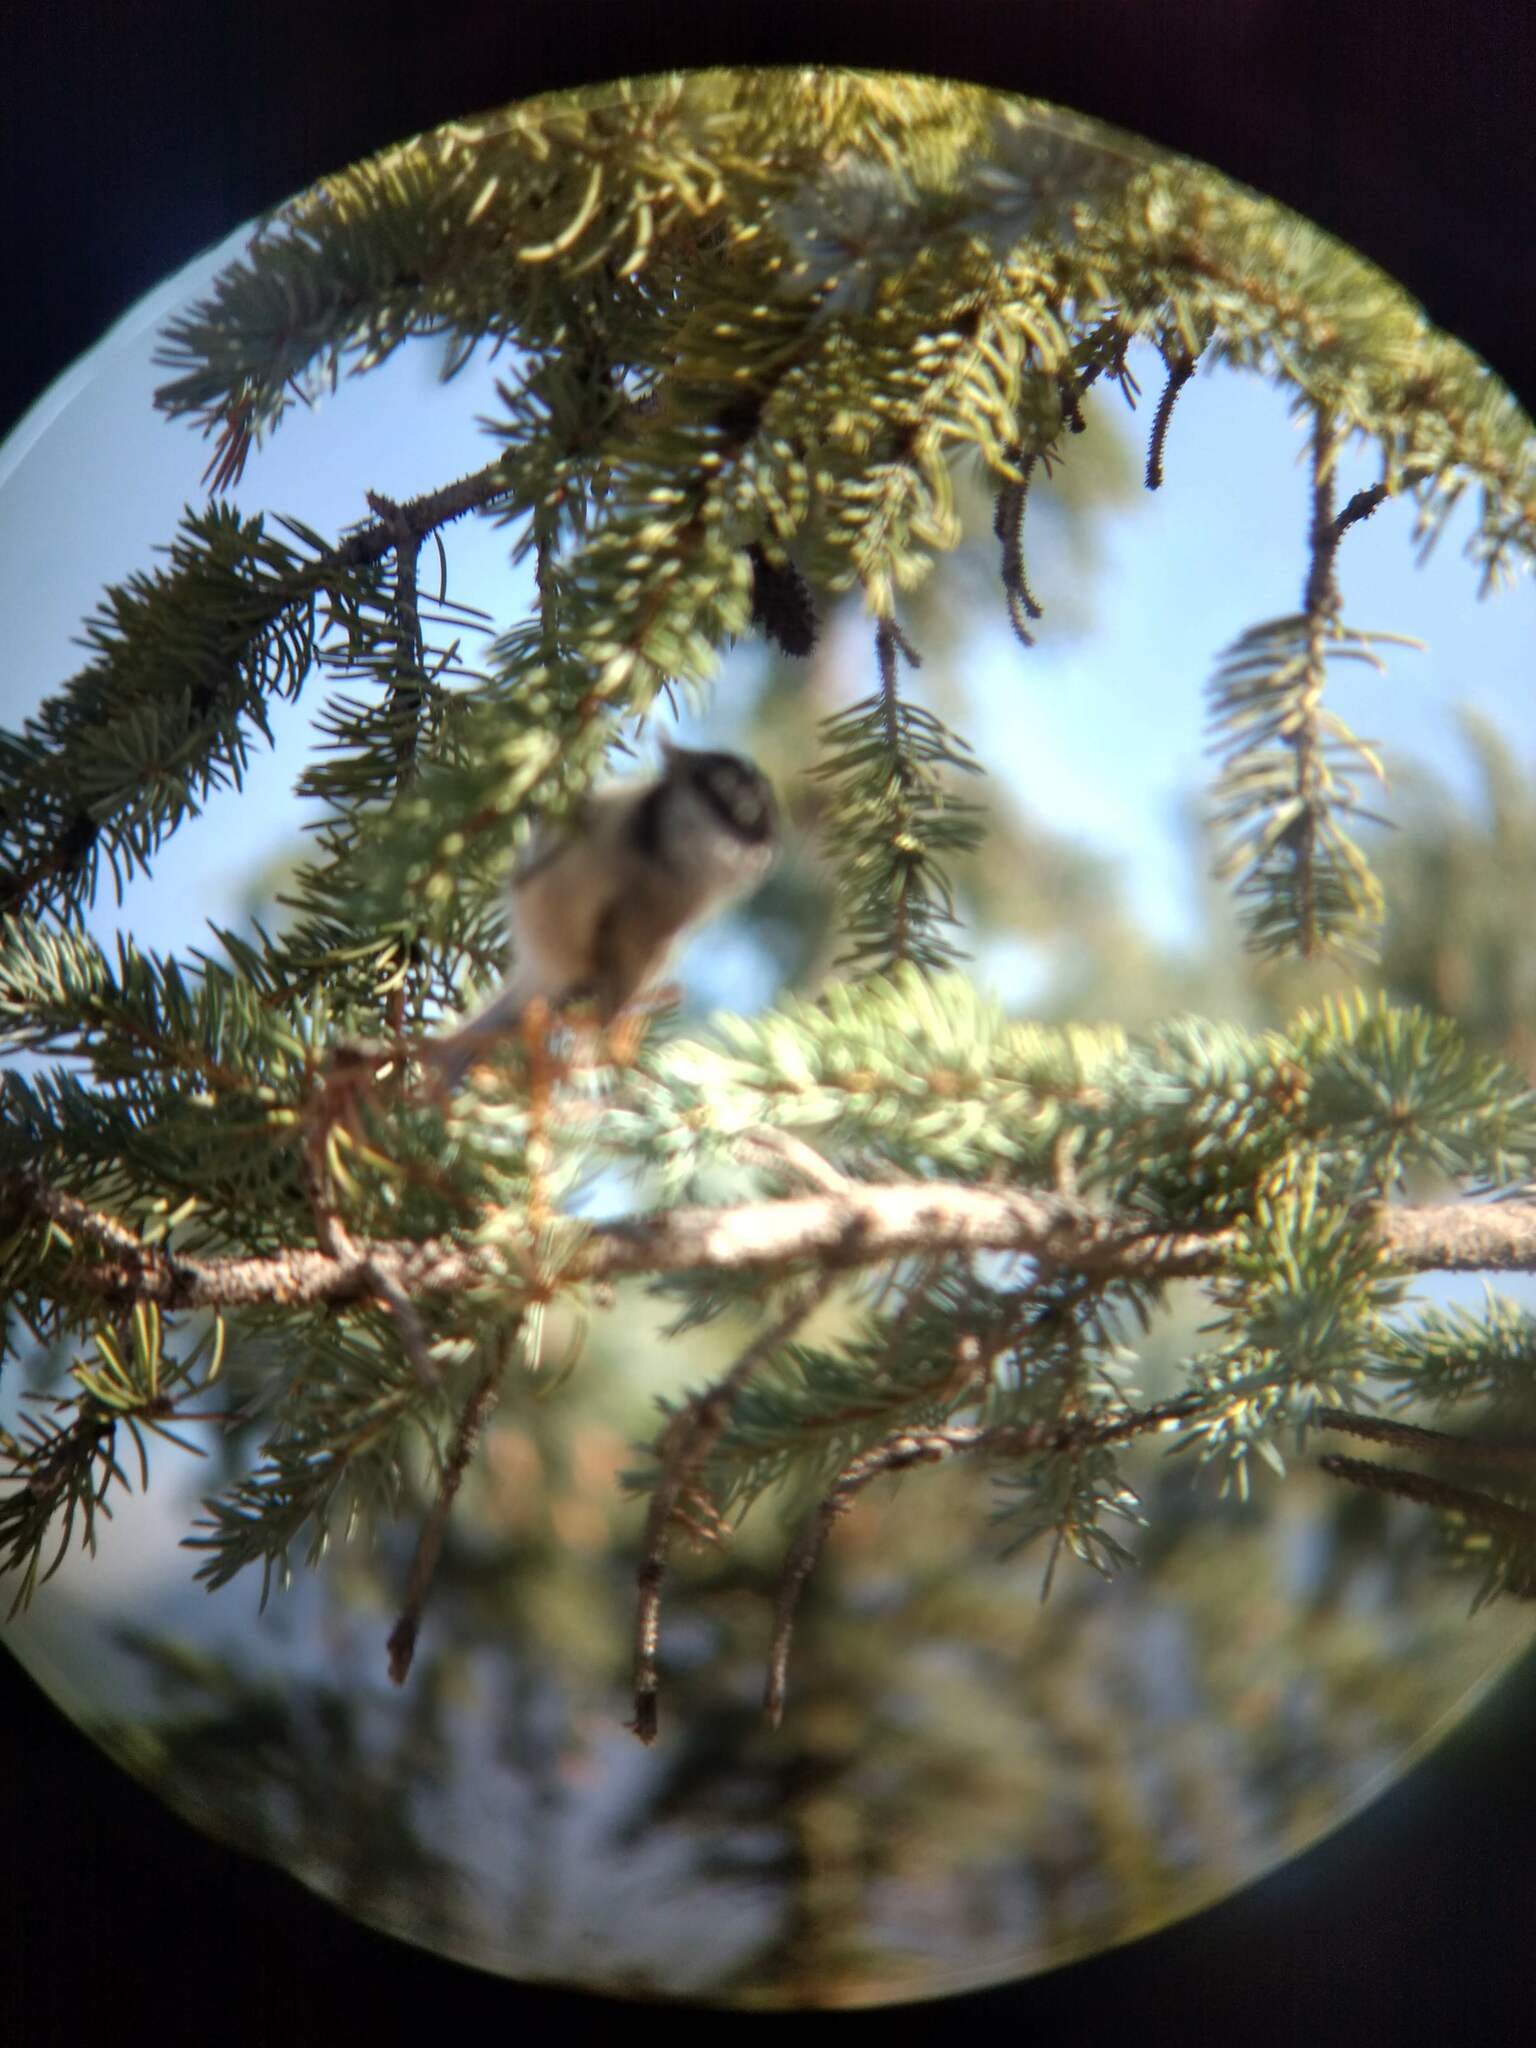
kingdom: Animalia
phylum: Chordata
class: Aves
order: Passeriformes
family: Paridae
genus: Poecile
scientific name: Poecile gambeli
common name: Mountain chickadee
